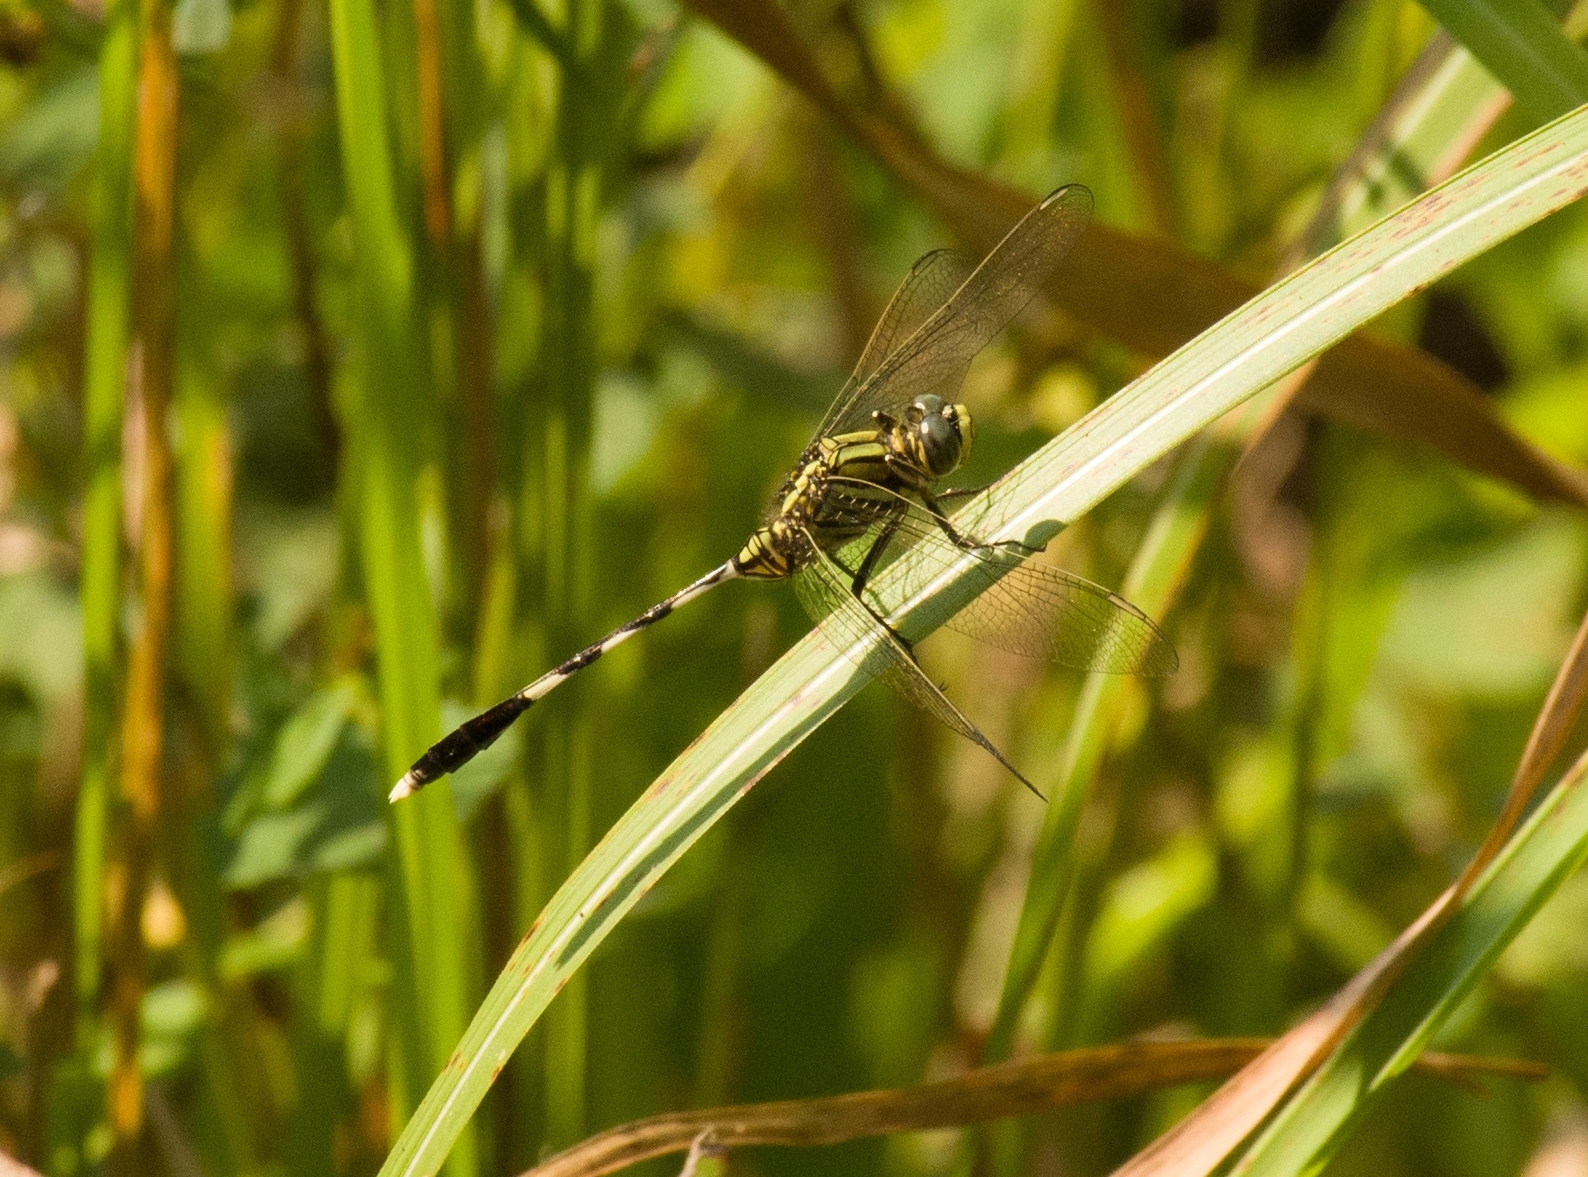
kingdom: Animalia
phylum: Arthropoda
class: Insecta
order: Odonata
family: Libellulidae
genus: Orthetrum
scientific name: Orthetrum sabina
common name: Slender skimmer
